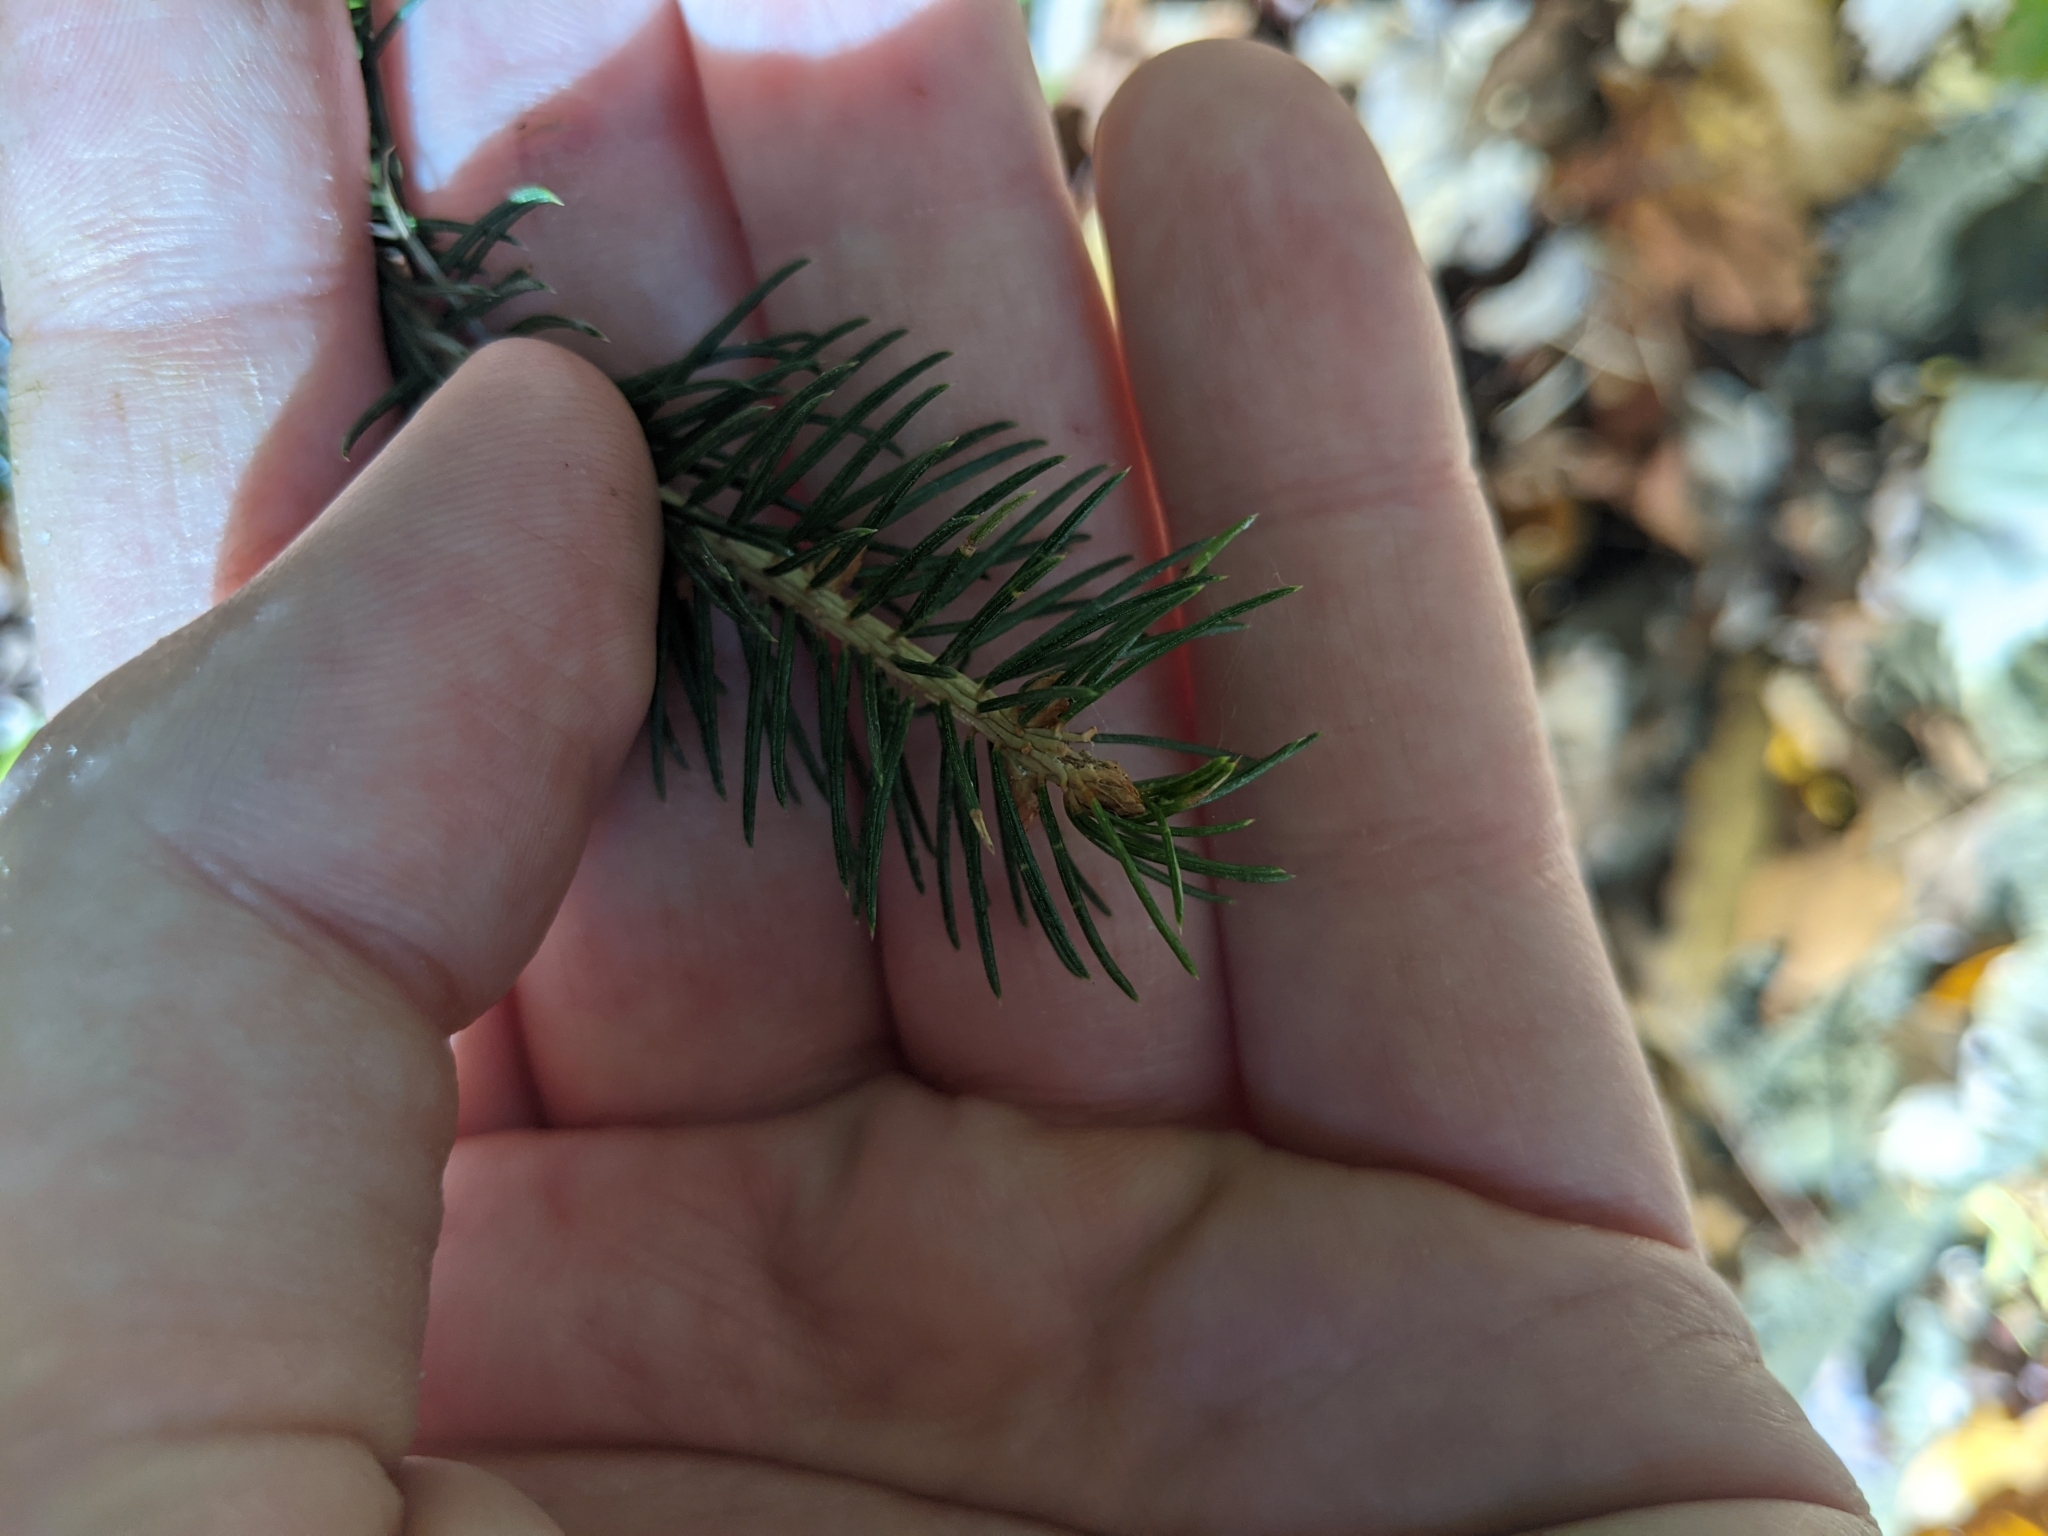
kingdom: Plantae
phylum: Tracheophyta
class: Pinopsida
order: Pinales
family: Pinaceae
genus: Picea
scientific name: Picea pungens
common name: Colorado spruce
